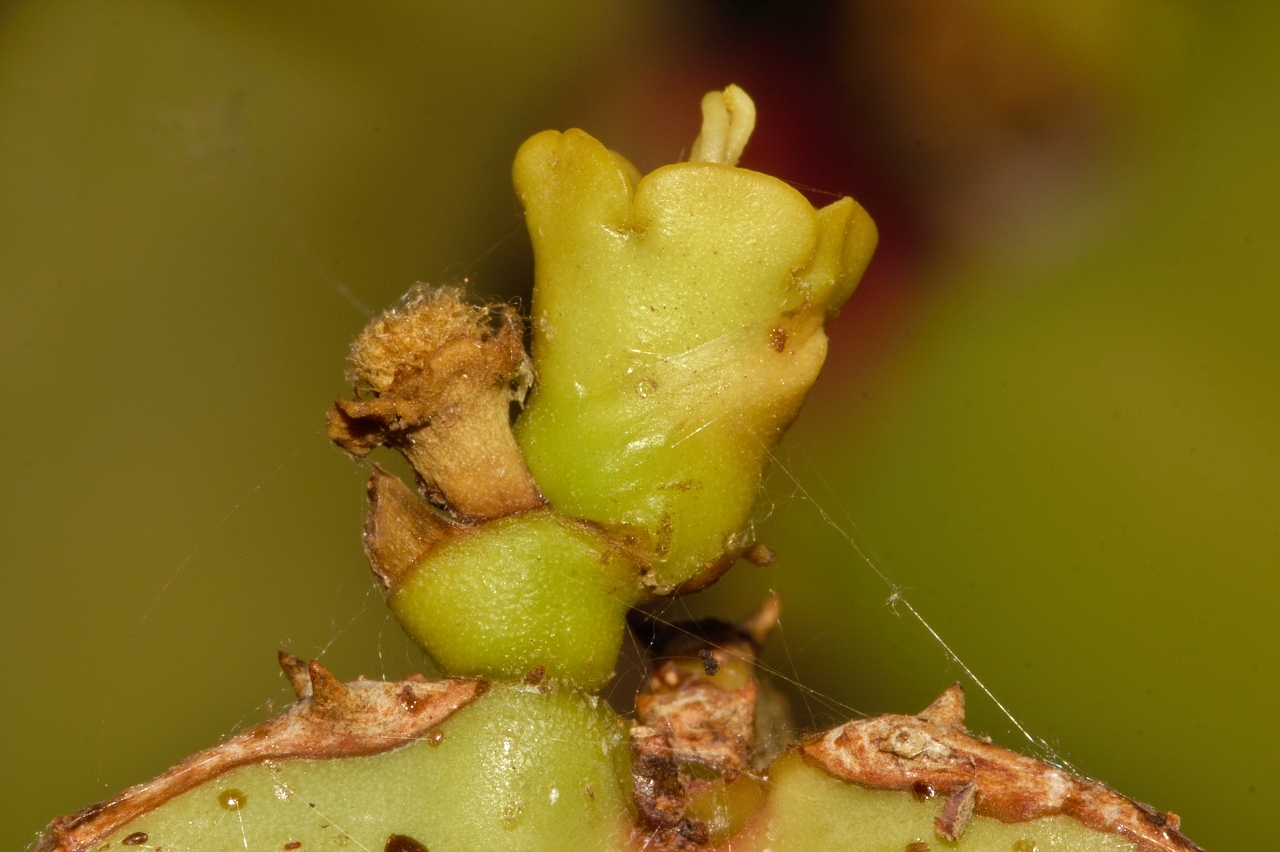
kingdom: Plantae
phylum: Tracheophyta
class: Magnoliopsida
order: Malpighiales
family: Euphorbiaceae
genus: Euphorbia
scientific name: Euphorbia cooperi
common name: Candelabra tree
